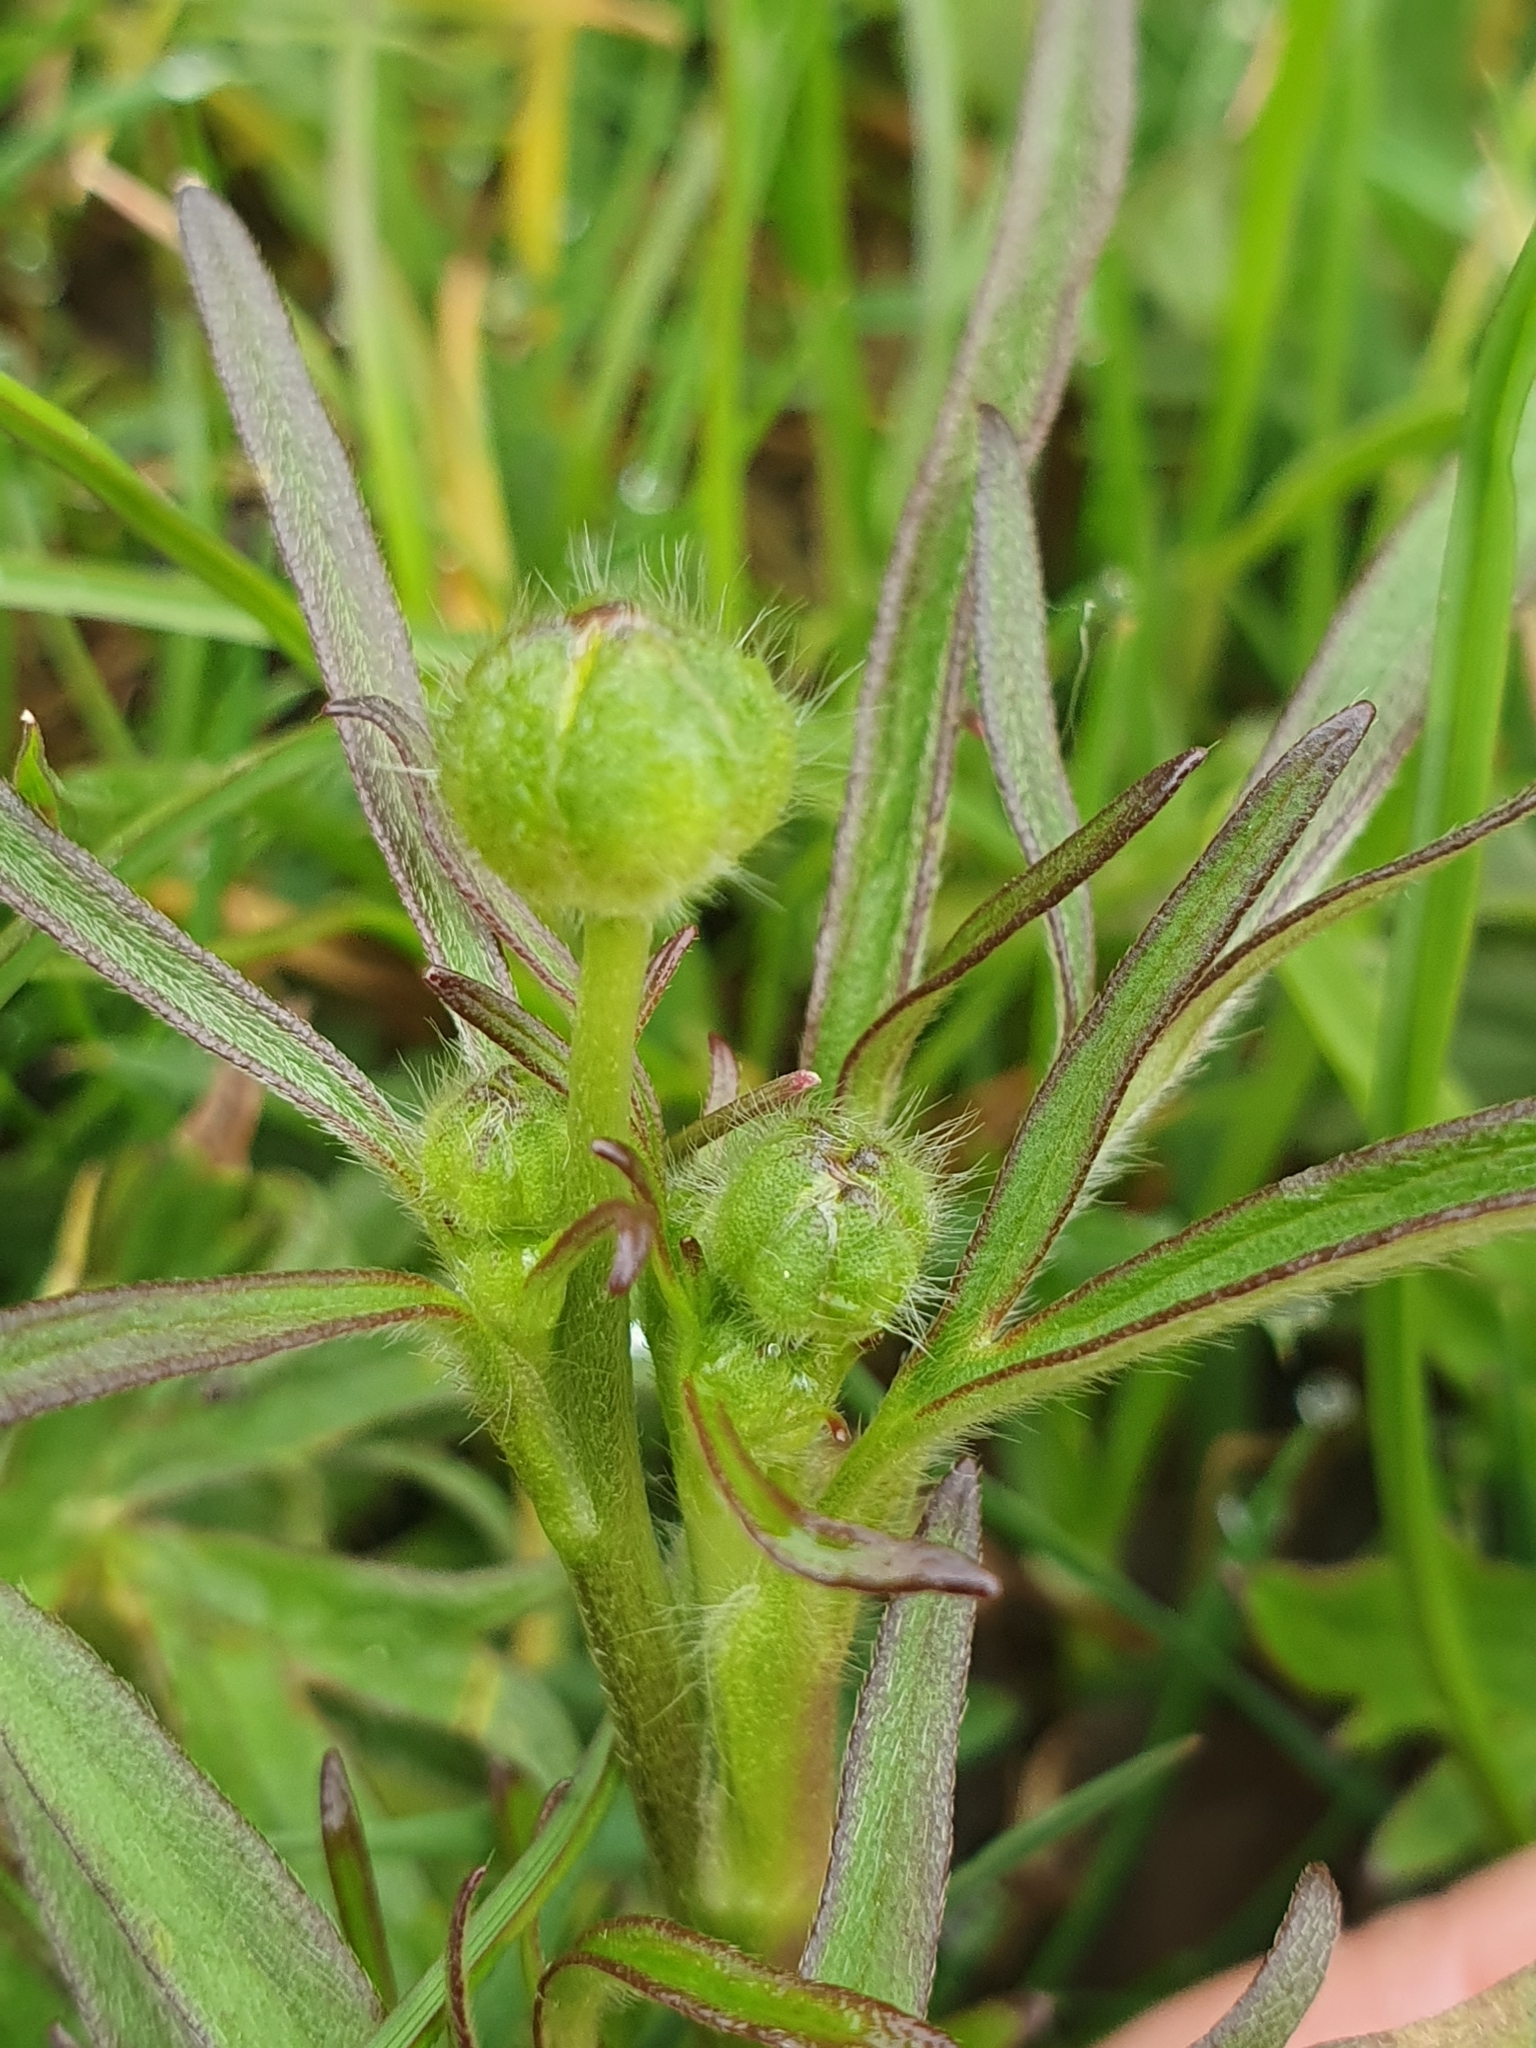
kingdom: Plantae
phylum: Tracheophyta
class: Magnoliopsida
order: Ranunculales
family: Ranunculaceae
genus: Ranunculus
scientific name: Ranunculus acris
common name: Meadow buttercup
